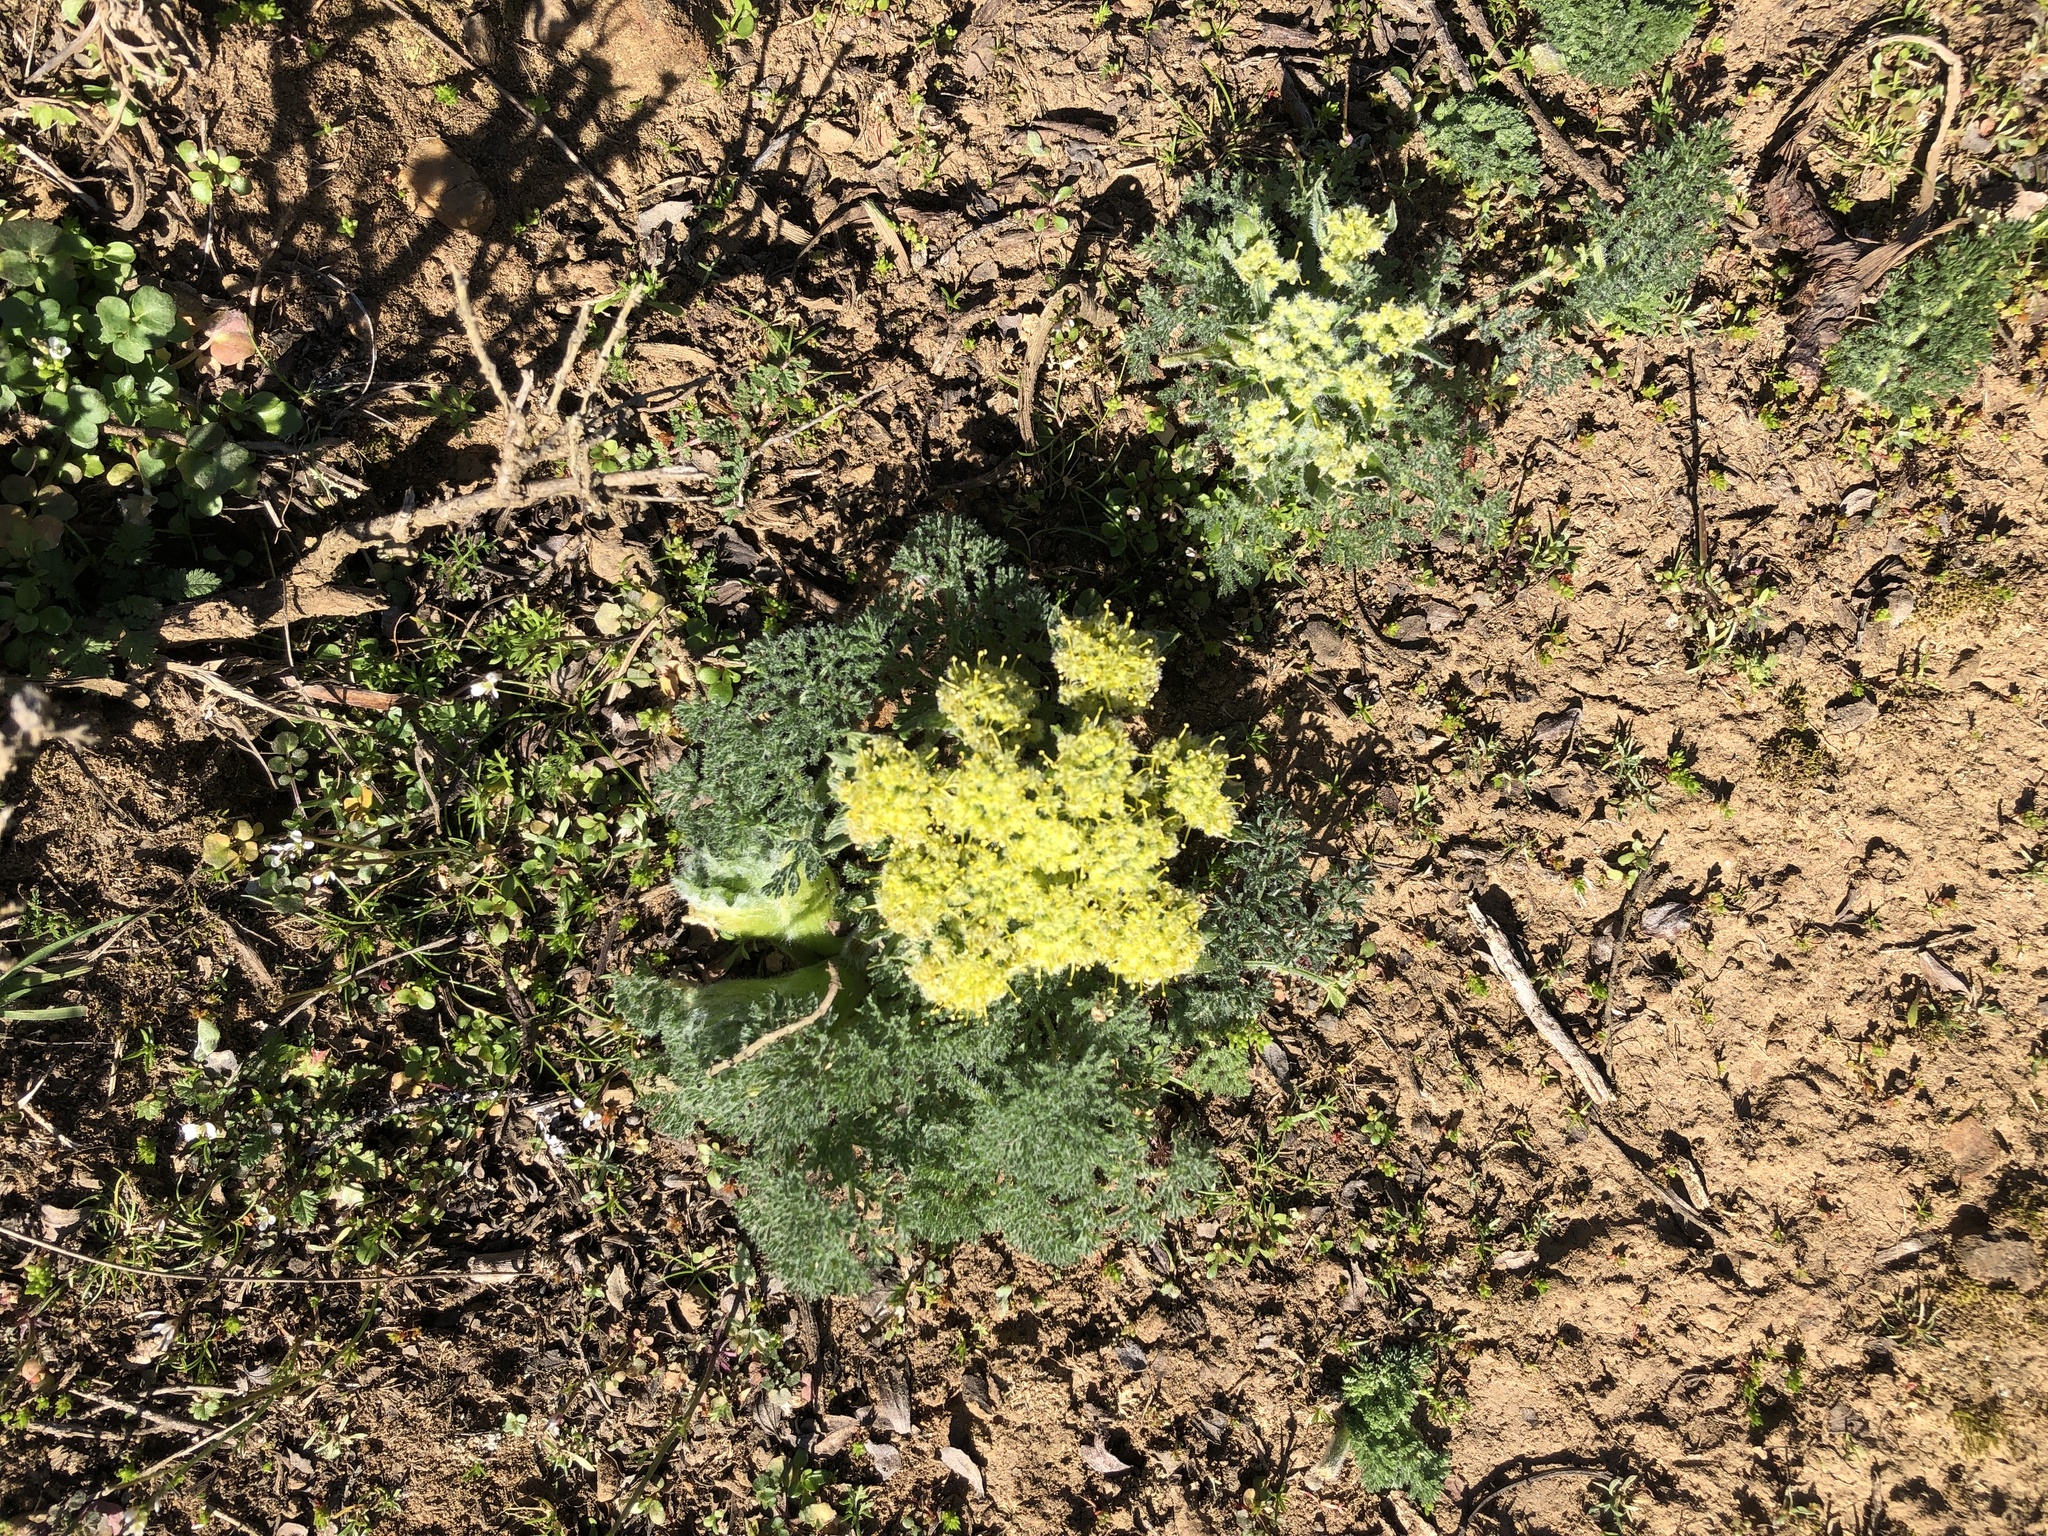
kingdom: Plantae
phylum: Tracheophyta
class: Magnoliopsida
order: Apiales
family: Apiaceae
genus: Lomatium
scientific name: Lomatium dasycarpum
